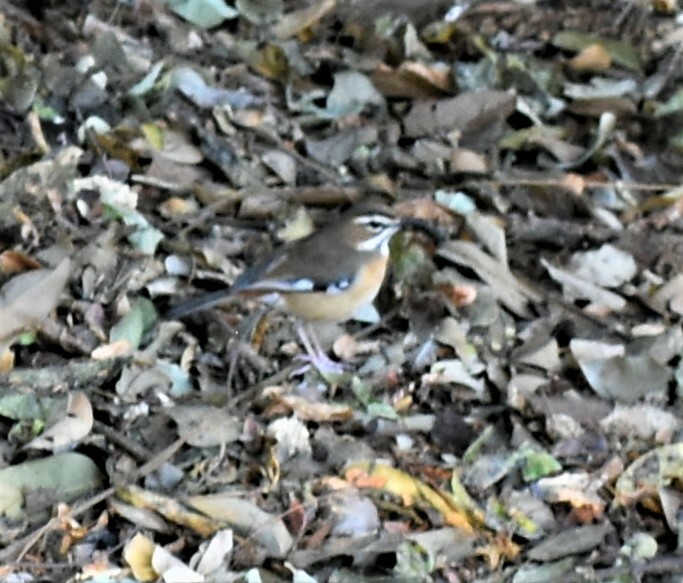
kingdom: Animalia
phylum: Chordata
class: Aves
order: Passeriformes
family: Muscicapidae
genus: Erythropygia
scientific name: Erythropygia quadrivirgata
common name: Bearded scrub robin
